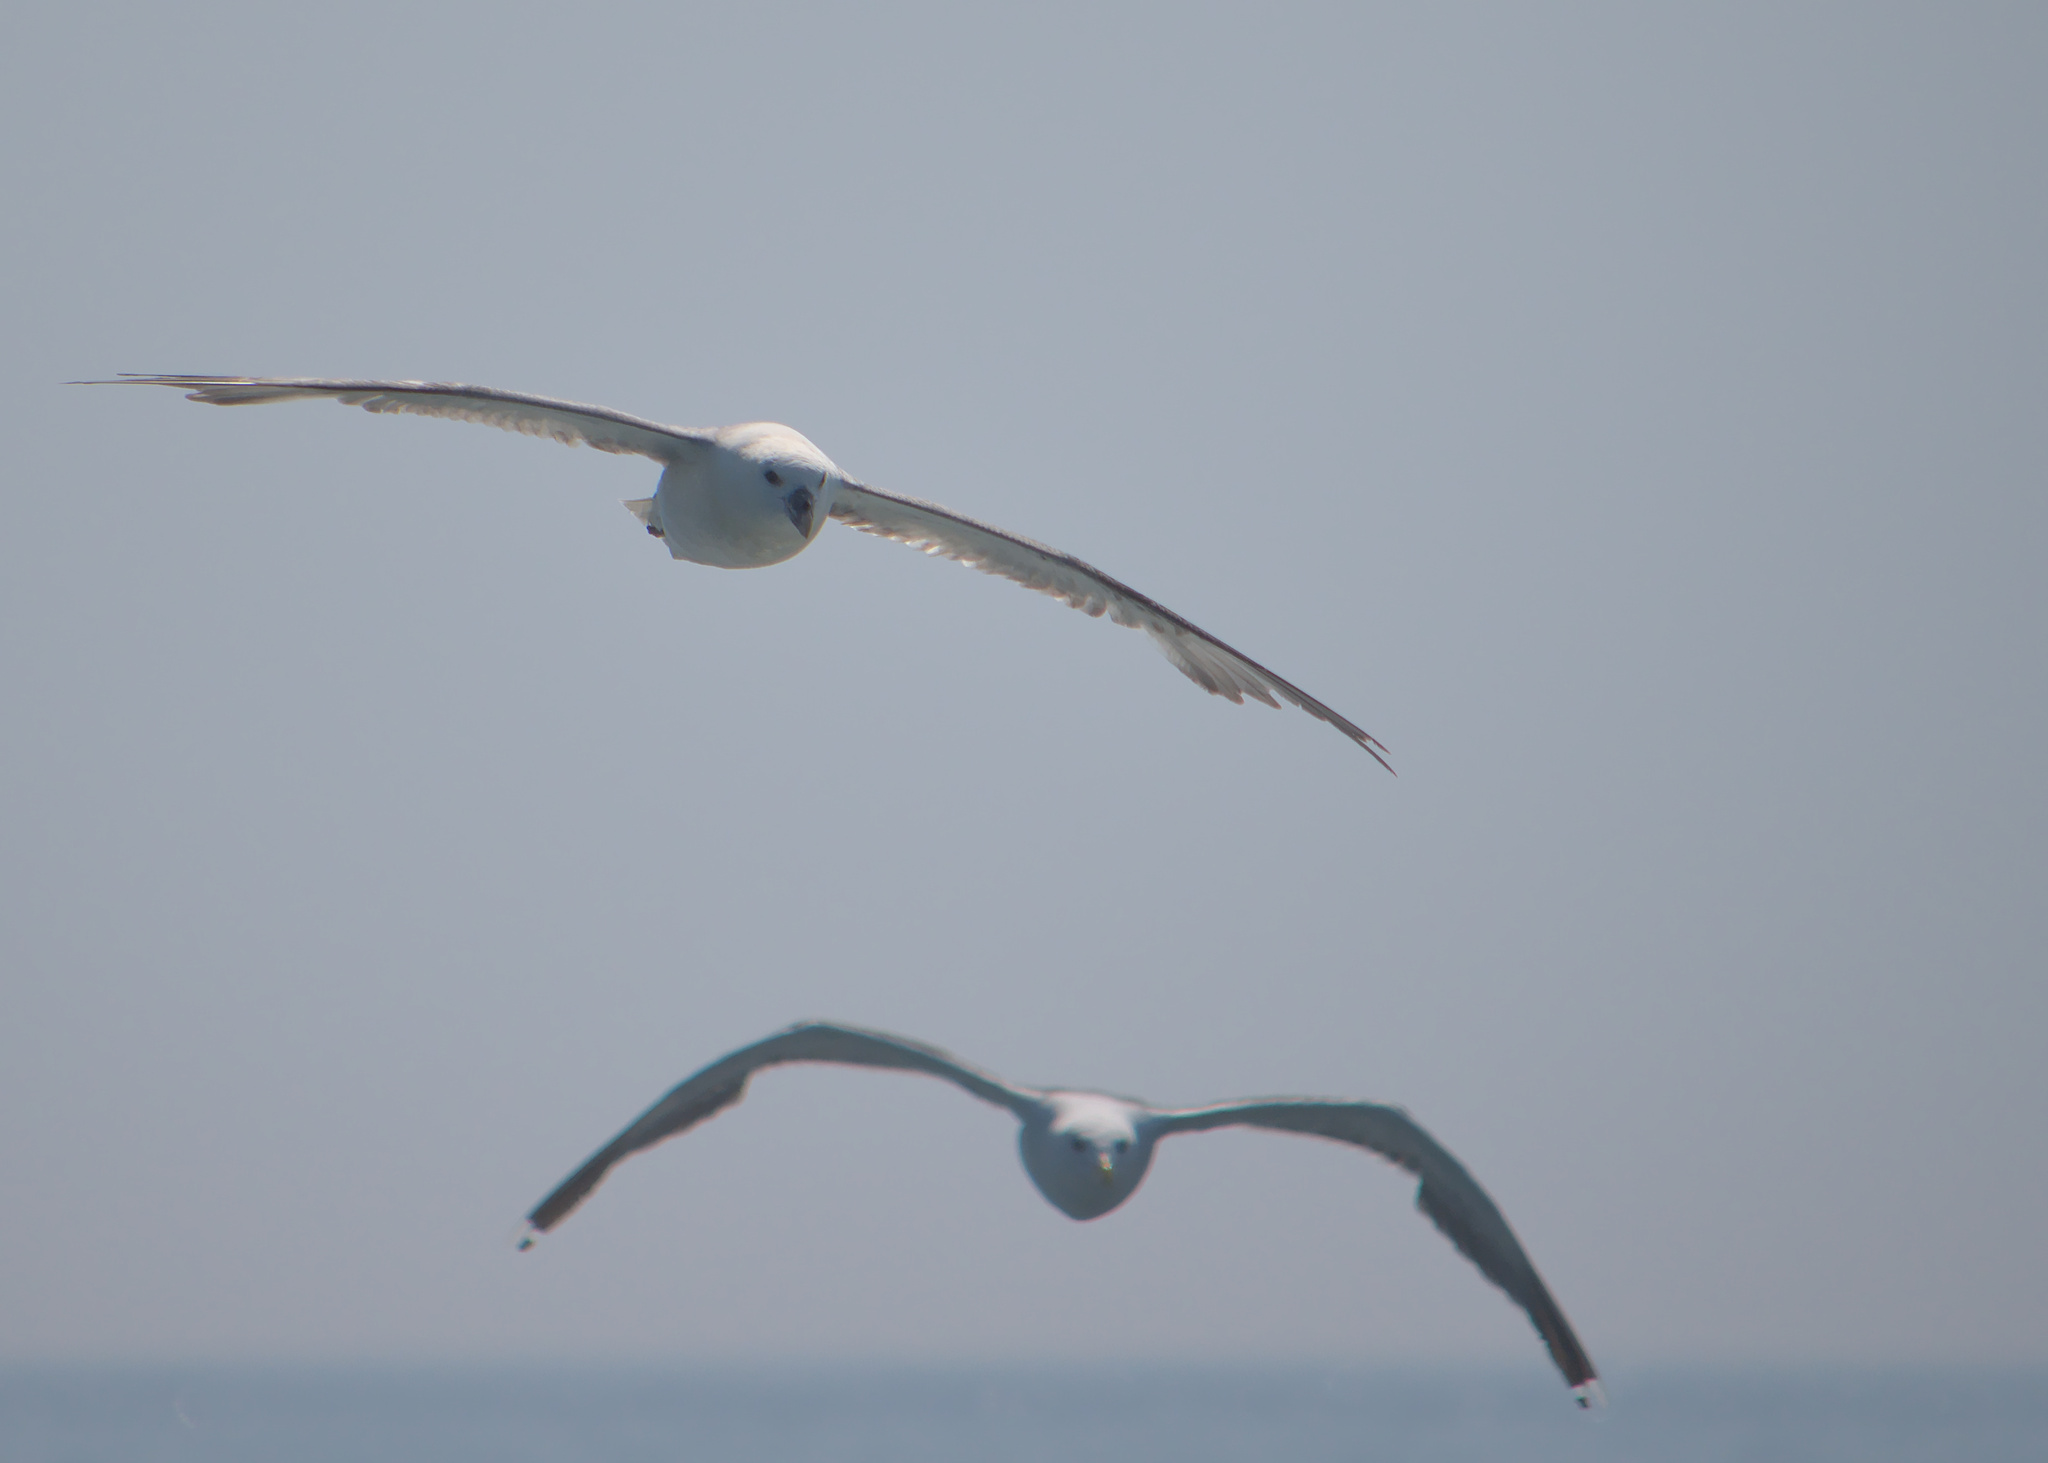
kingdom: Animalia
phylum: Chordata
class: Aves
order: Procellariiformes
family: Procellariidae
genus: Fulmarus
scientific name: Fulmarus glacialis
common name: Northern fulmar
